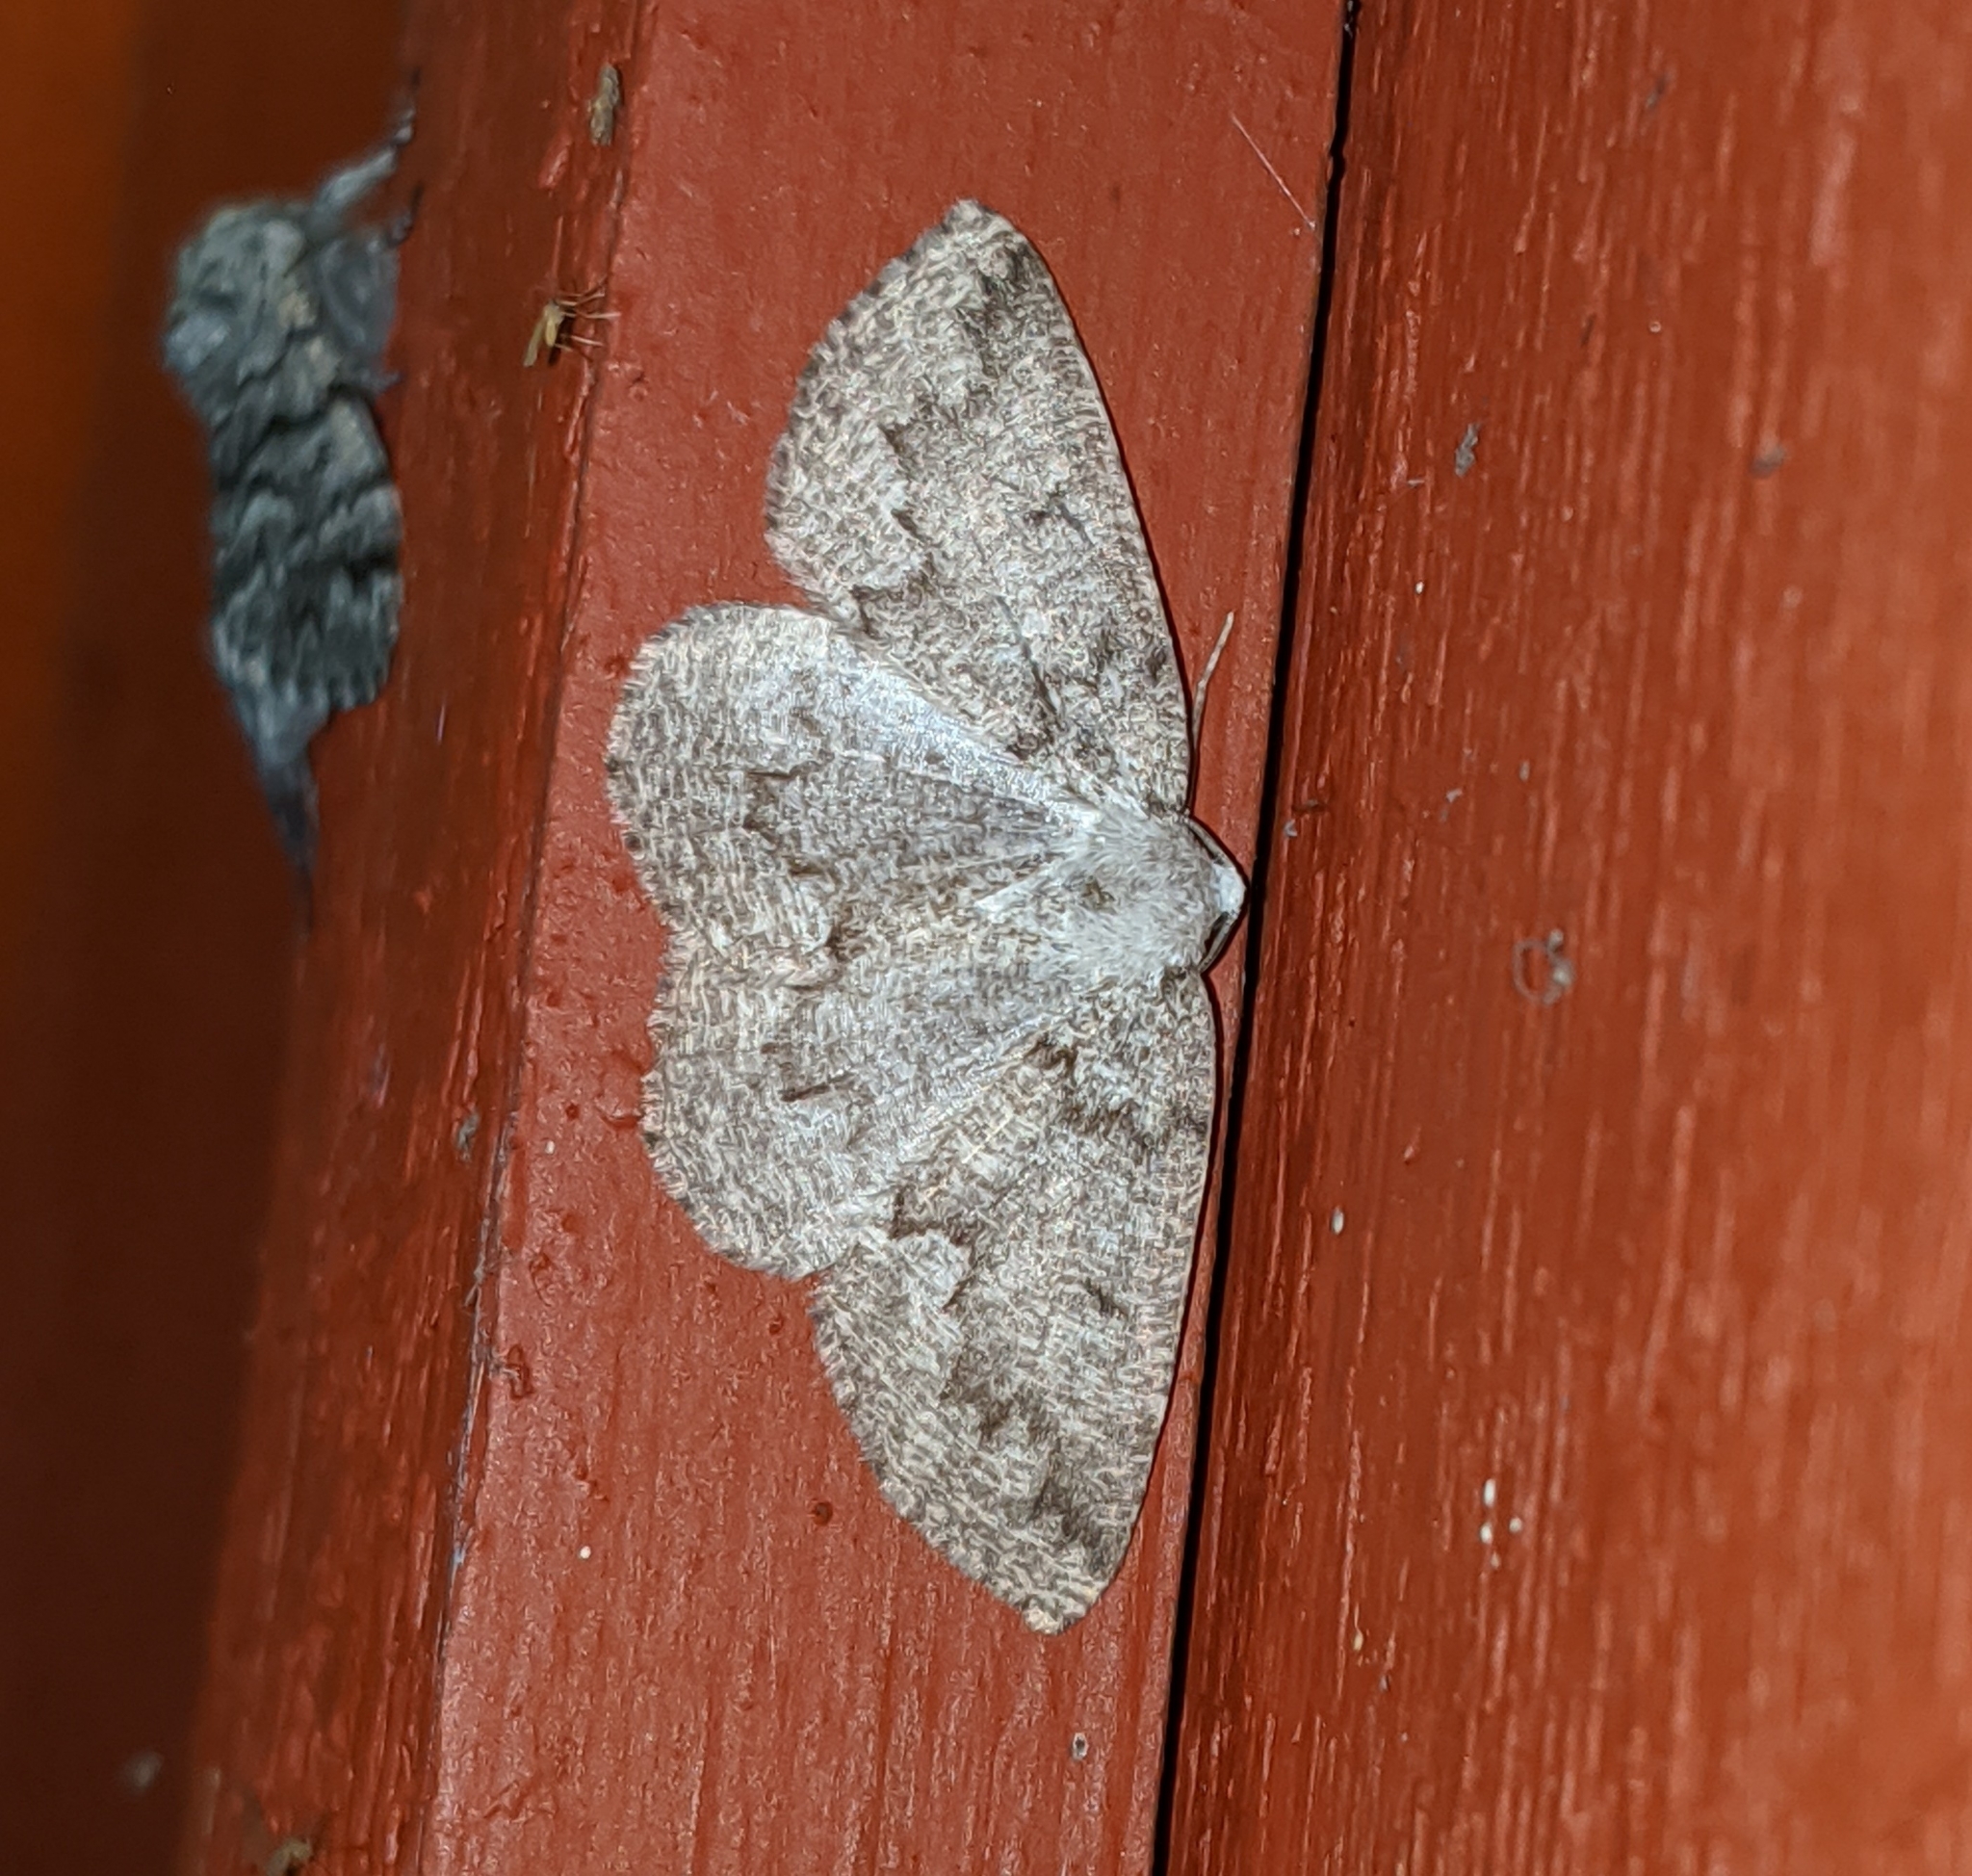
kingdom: Animalia
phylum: Arthropoda
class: Insecta
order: Lepidoptera
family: Geometridae
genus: Sabulodes
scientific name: Sabulodes
